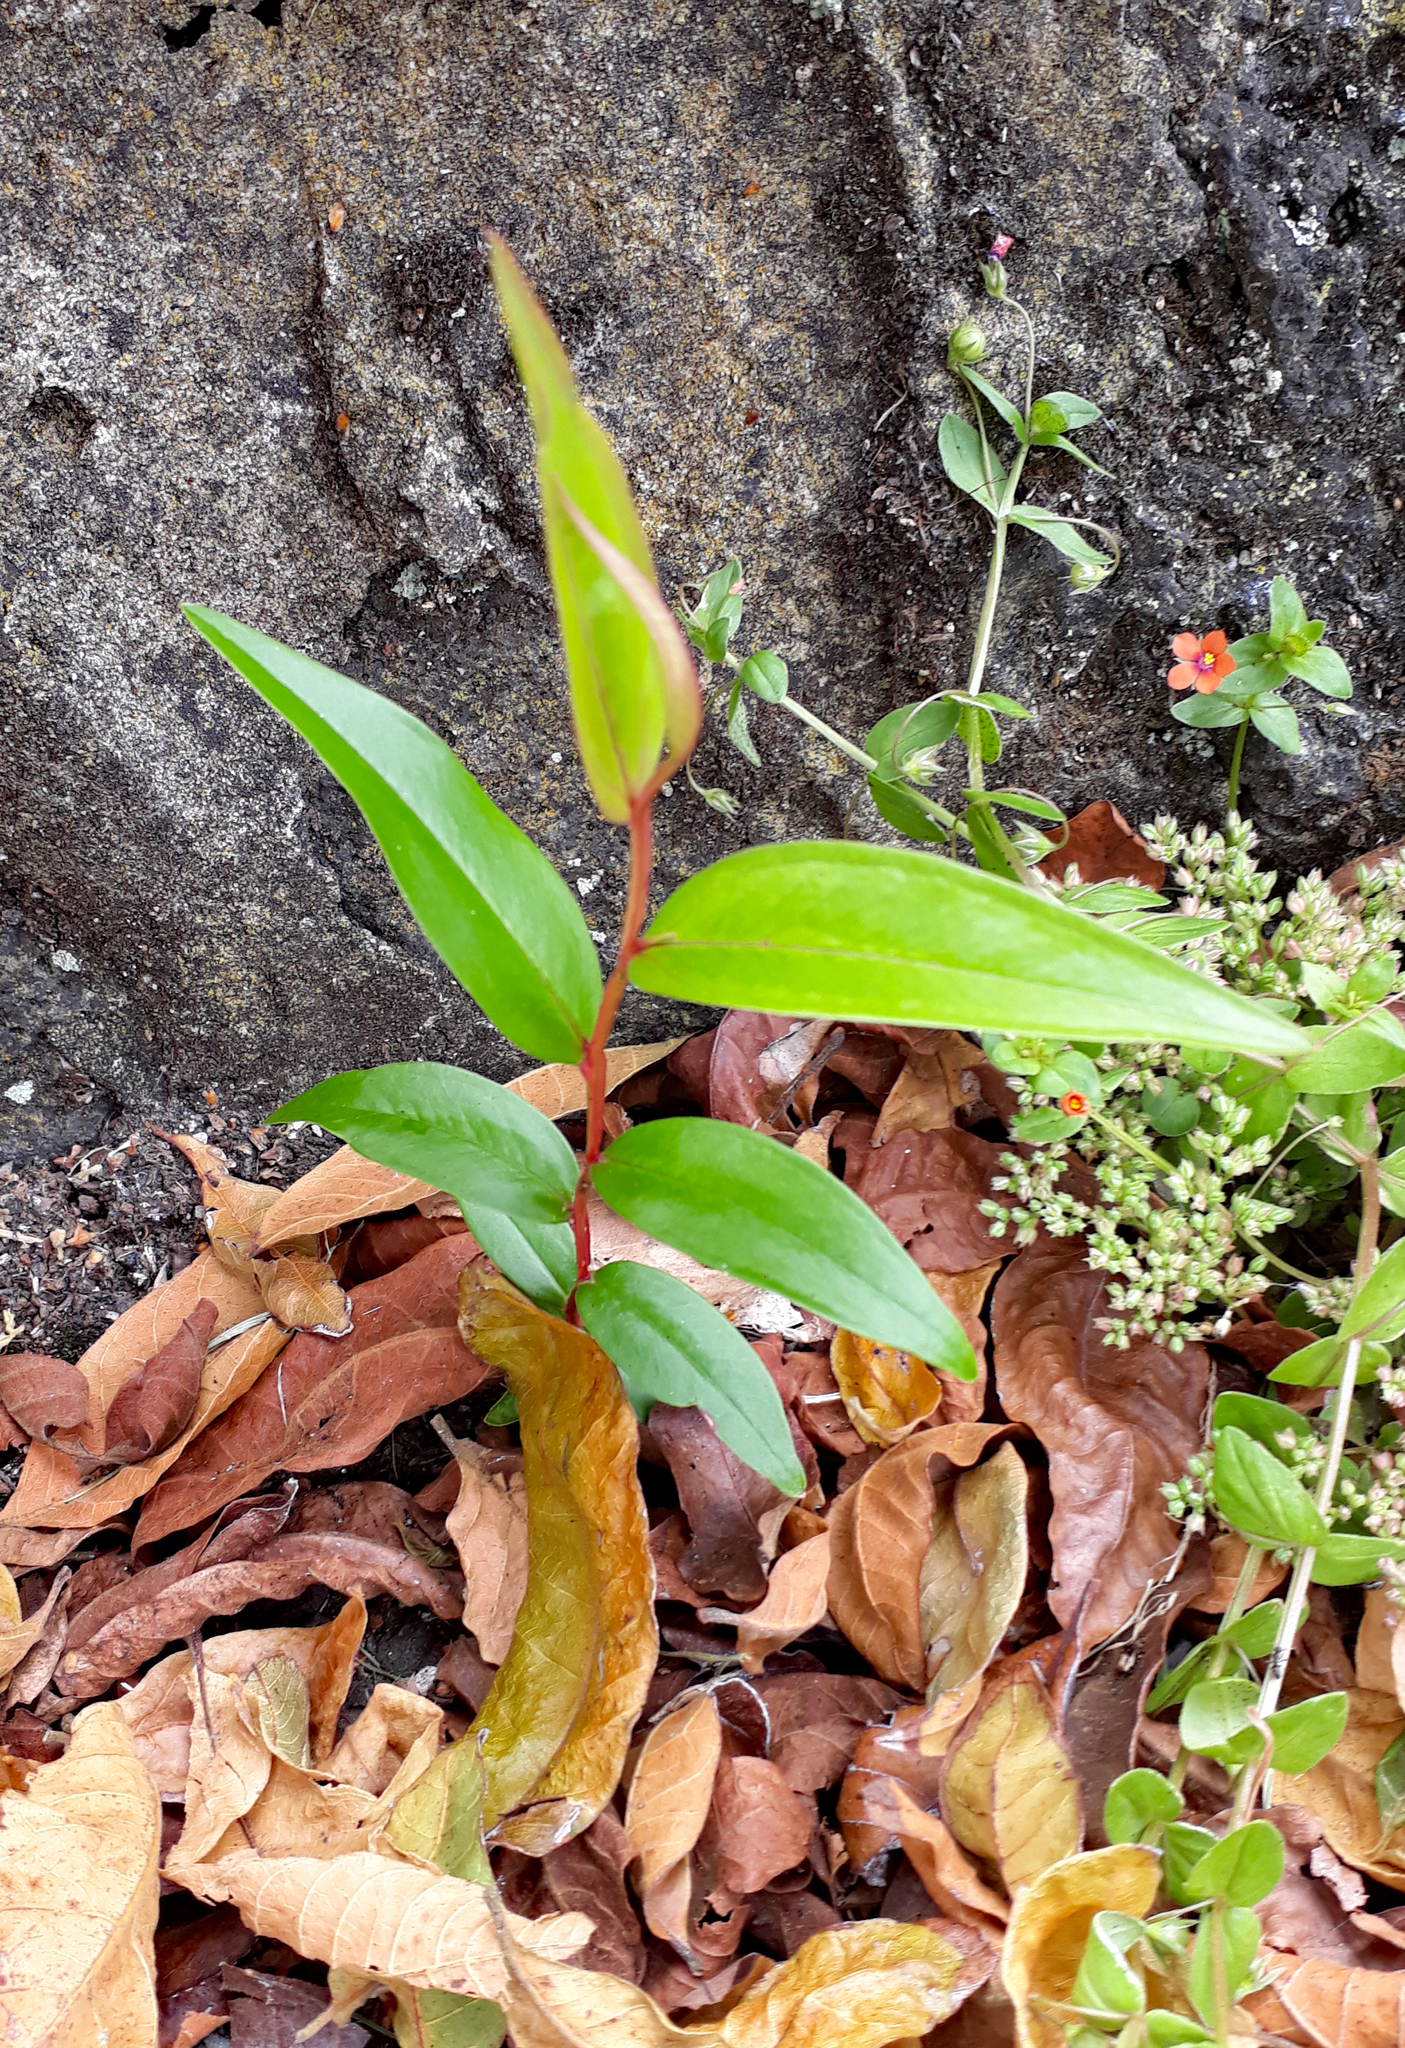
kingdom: Plantae
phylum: Tracheophyta
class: Magnoliopsida
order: Myrtales
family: Myrtaceae
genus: Agonis
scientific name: Agonis flexuosa
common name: Willow myrtle
